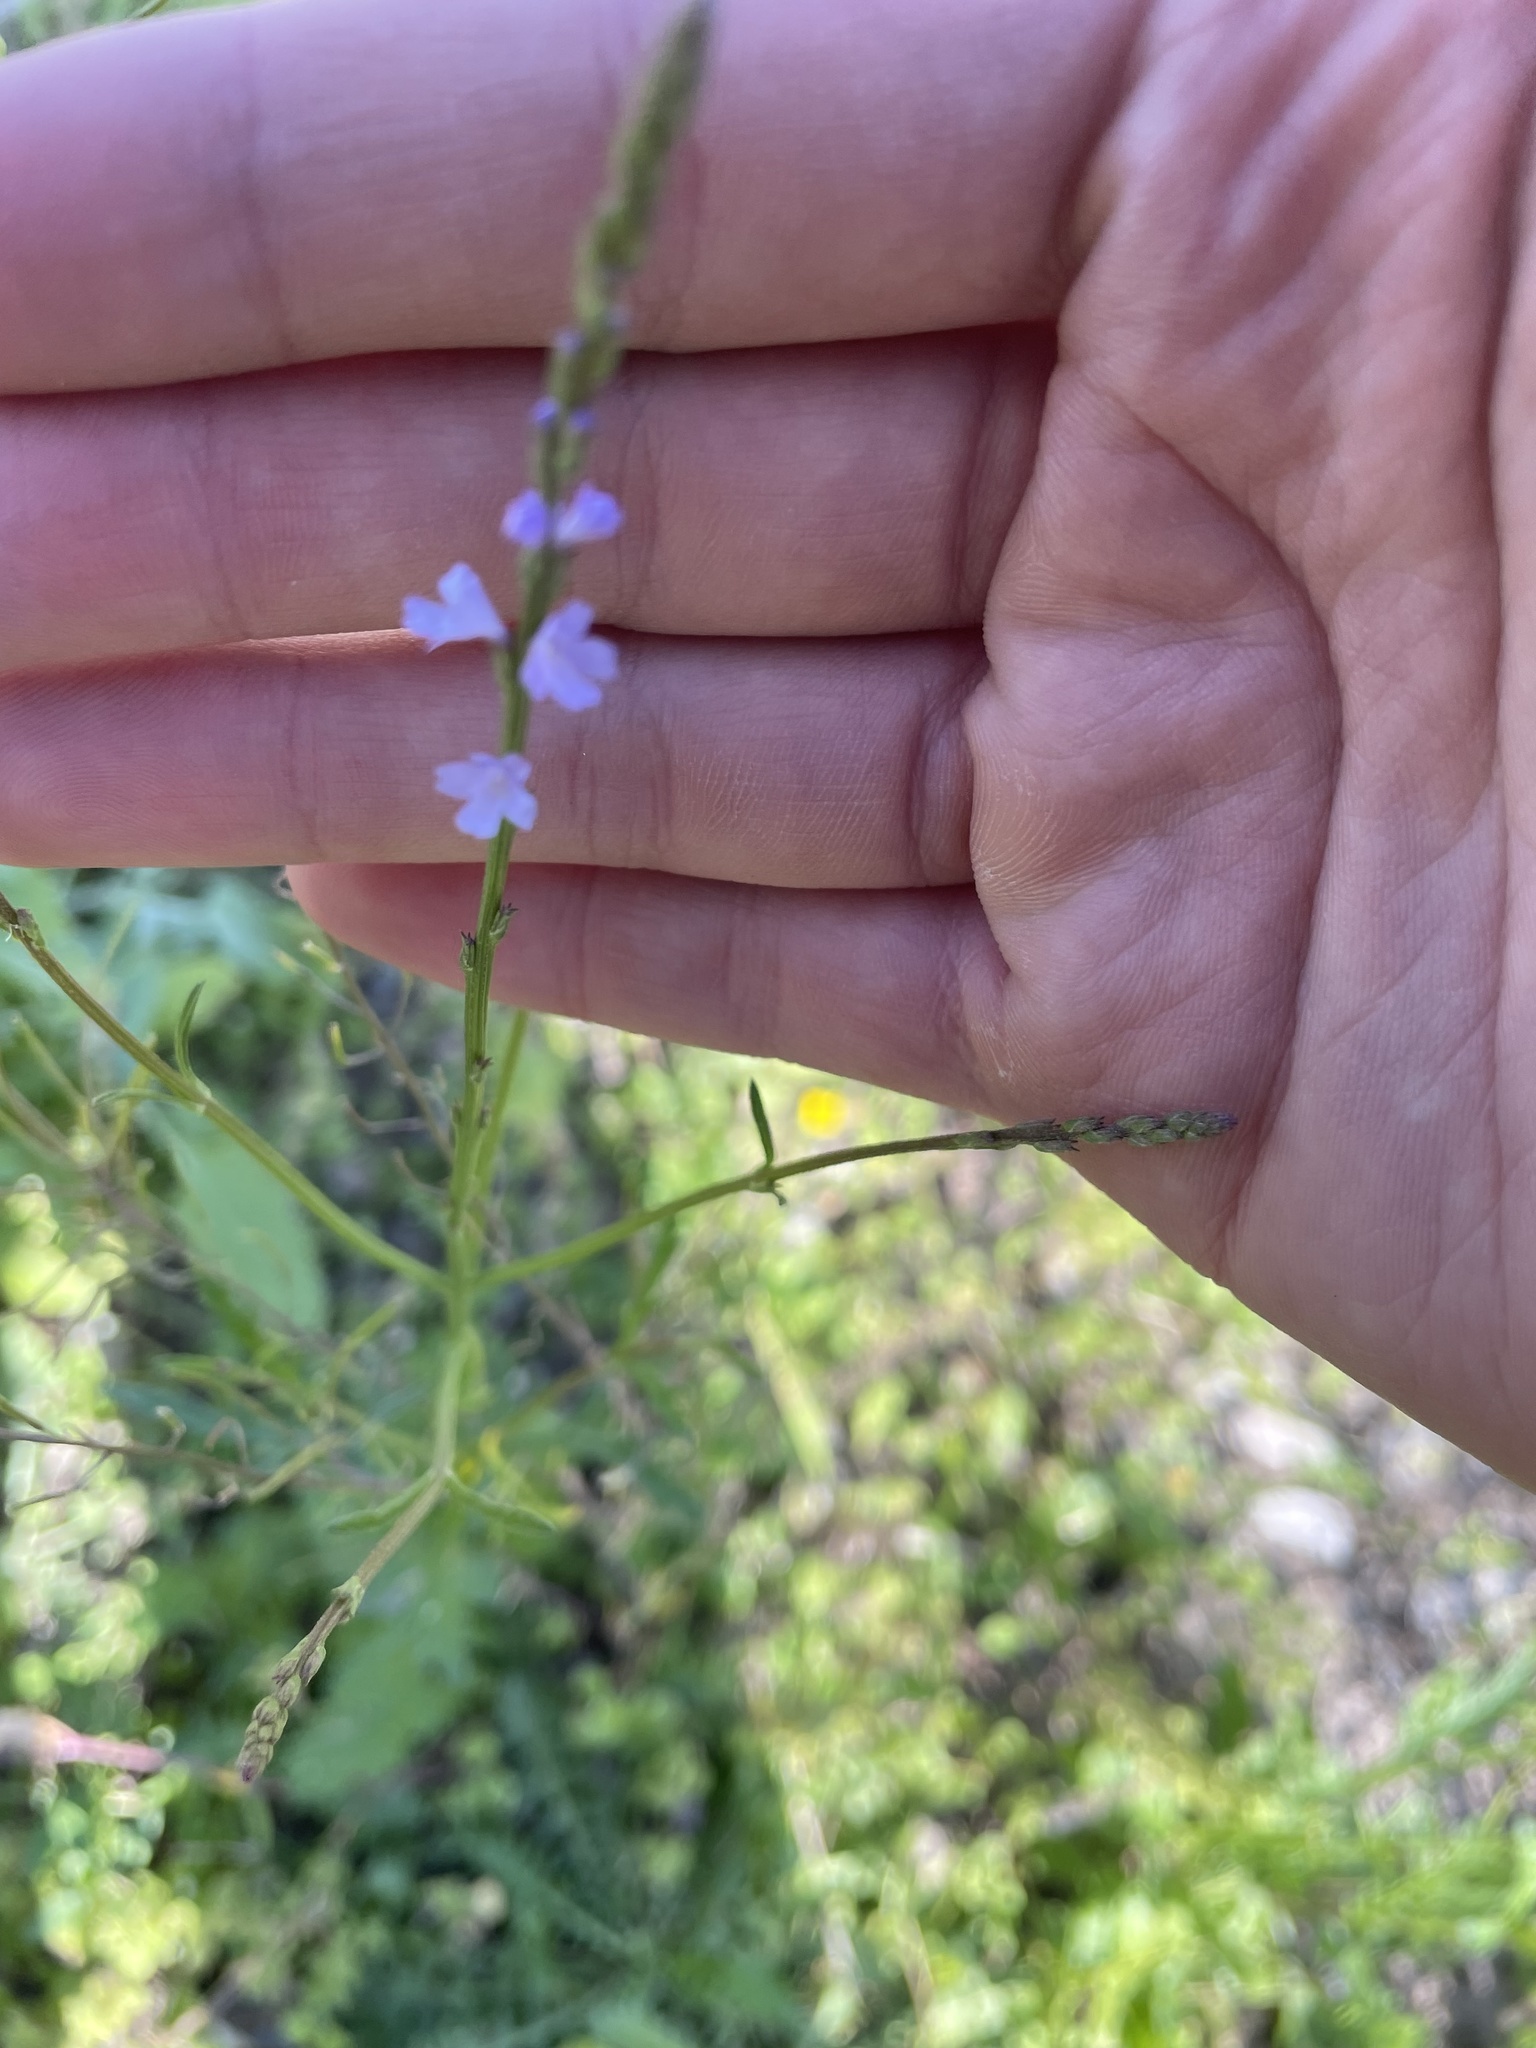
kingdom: Plantae
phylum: Tracheophyta
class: Magnoliopsida
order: Lamiales
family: Verbenaceae
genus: Verbena
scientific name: Verbena halei
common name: Texas vervain
